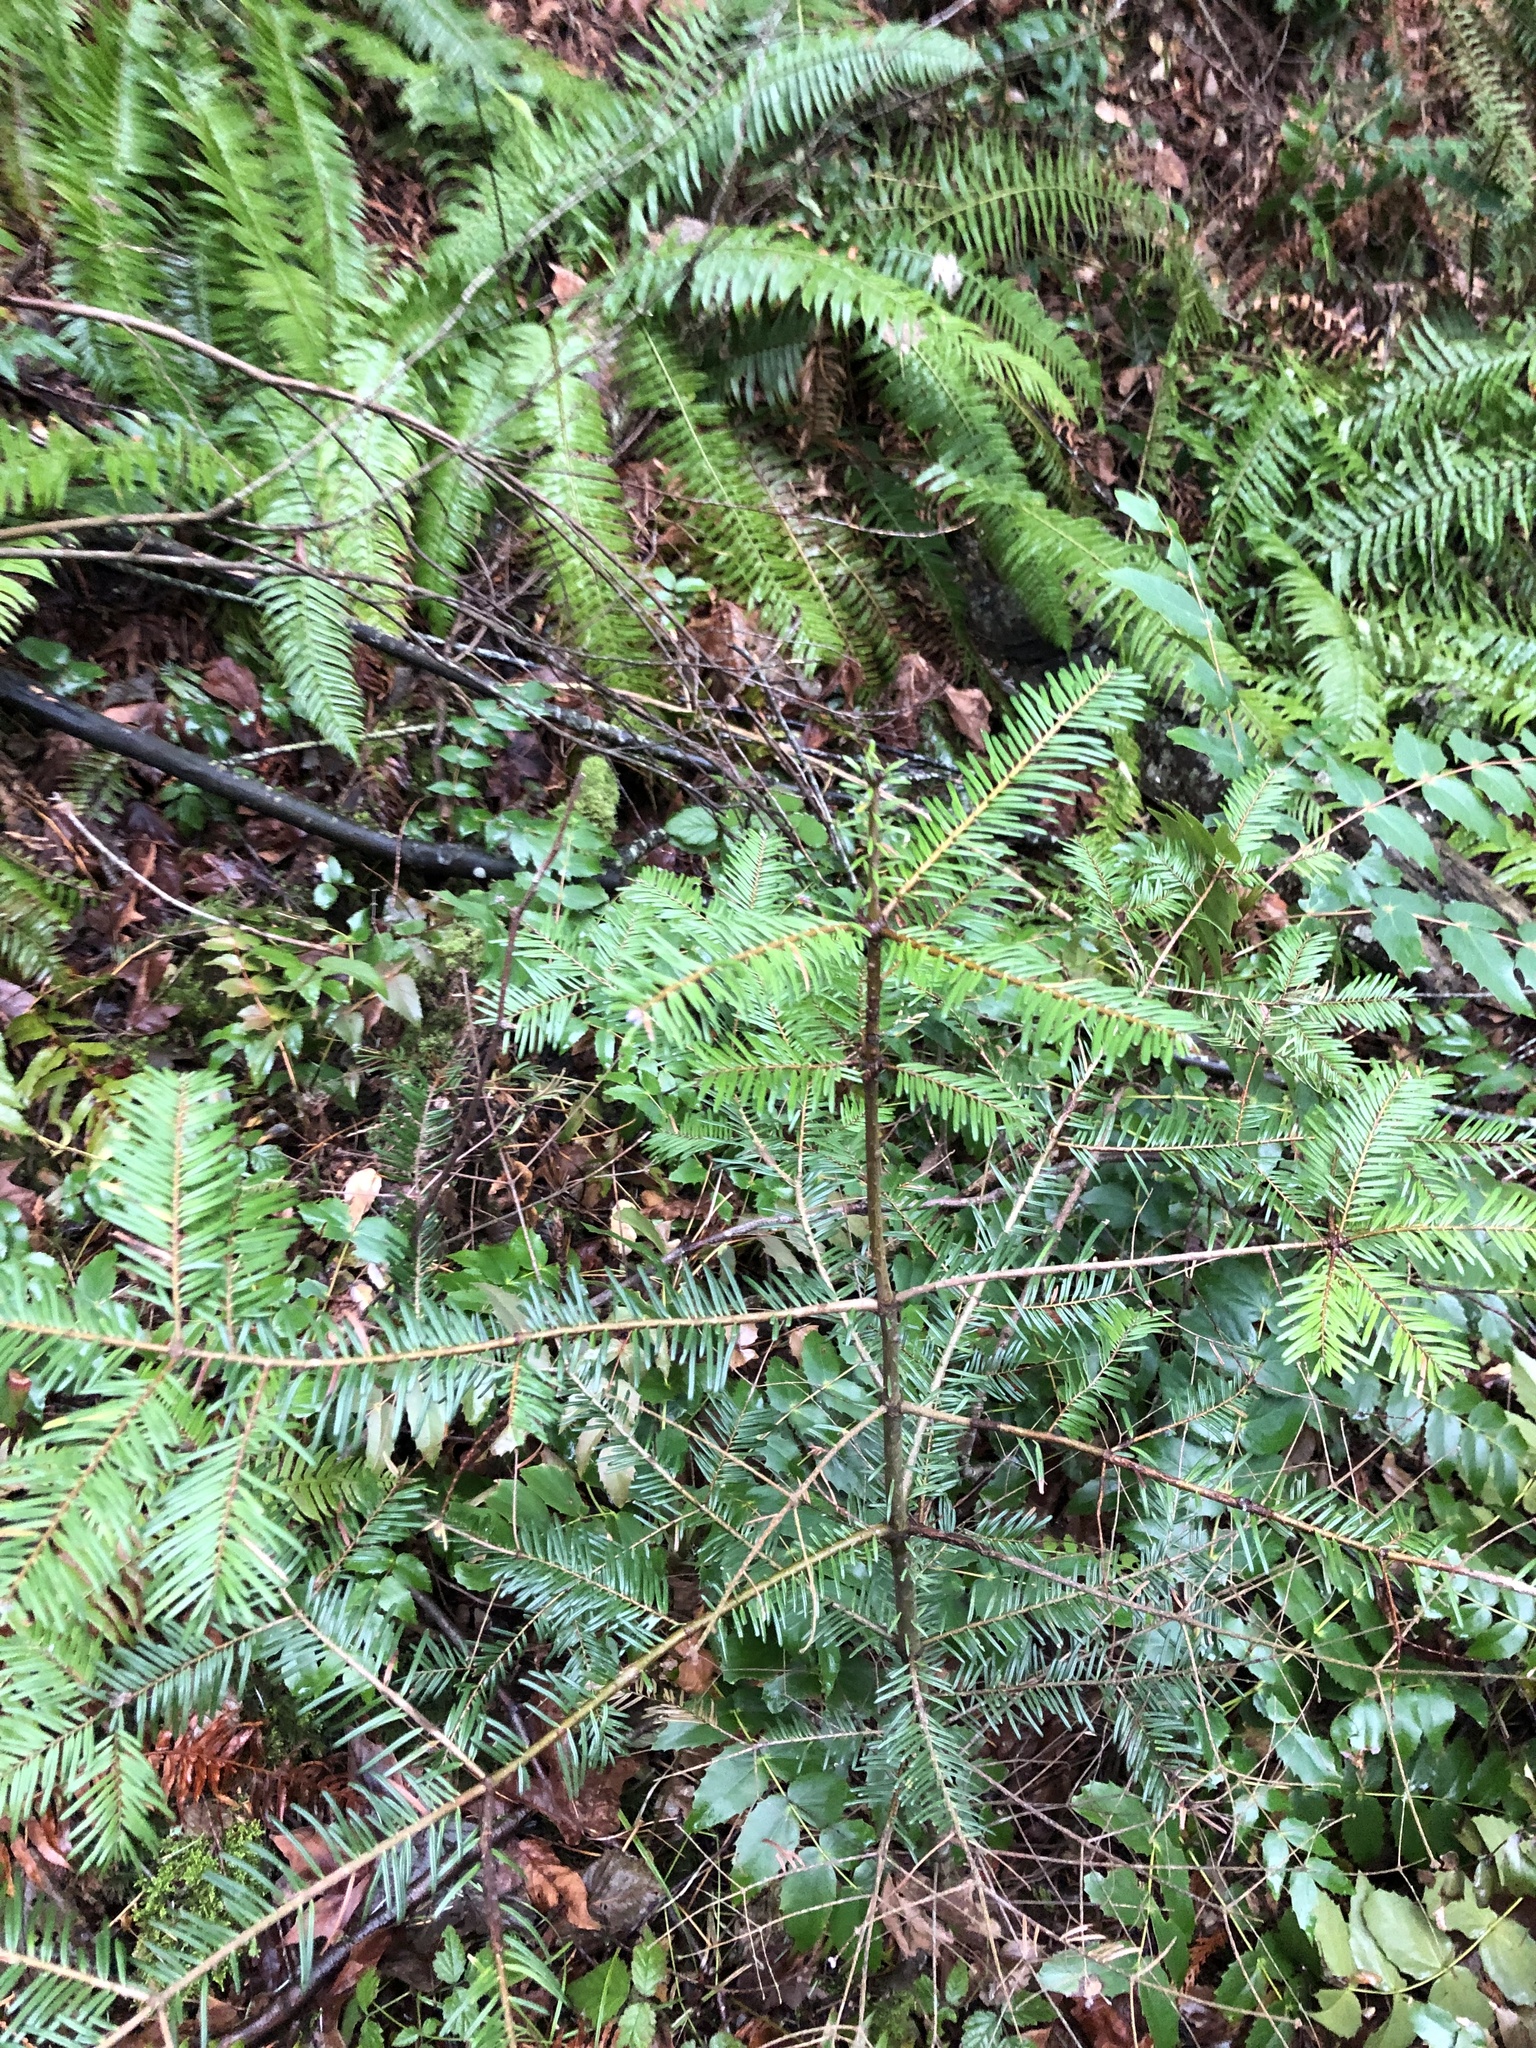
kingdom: Plantae
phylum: Tracheophyta
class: Pinopsida
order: Pinales
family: Pinaceae
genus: Abies
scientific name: Abies grandis
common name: Giant fir
